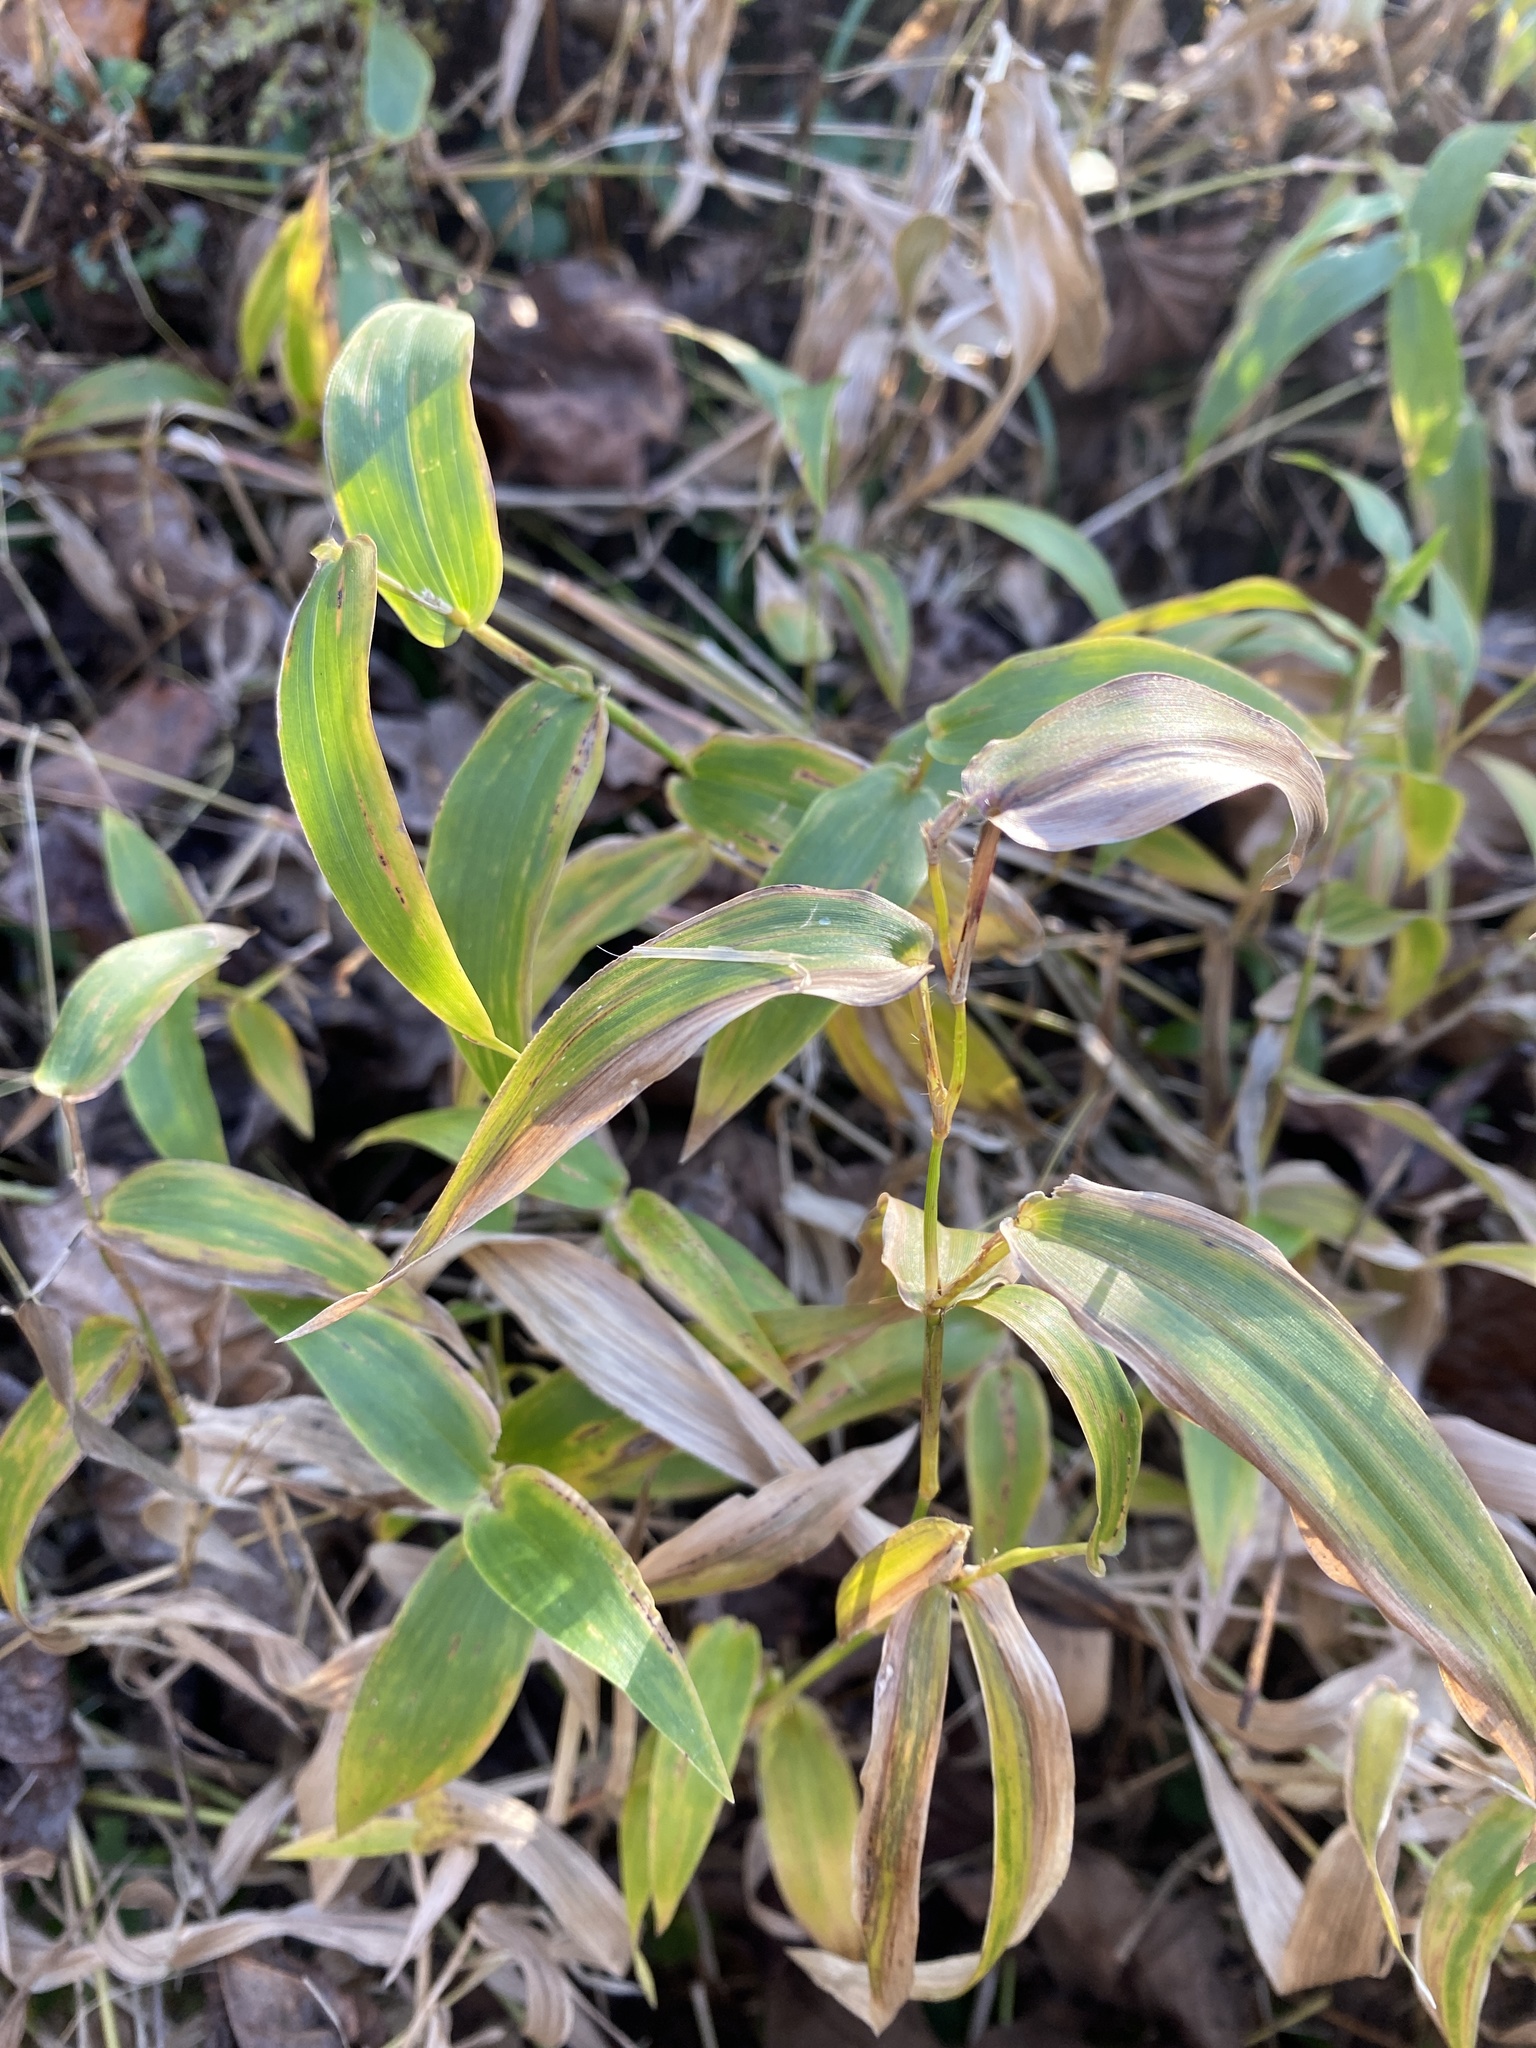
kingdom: Plantae
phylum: Tracheophyta
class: Liliopsida
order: Poales
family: Poaceae
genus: Arthraxon
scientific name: Arthraxon hispidus
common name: Small carpgrass
